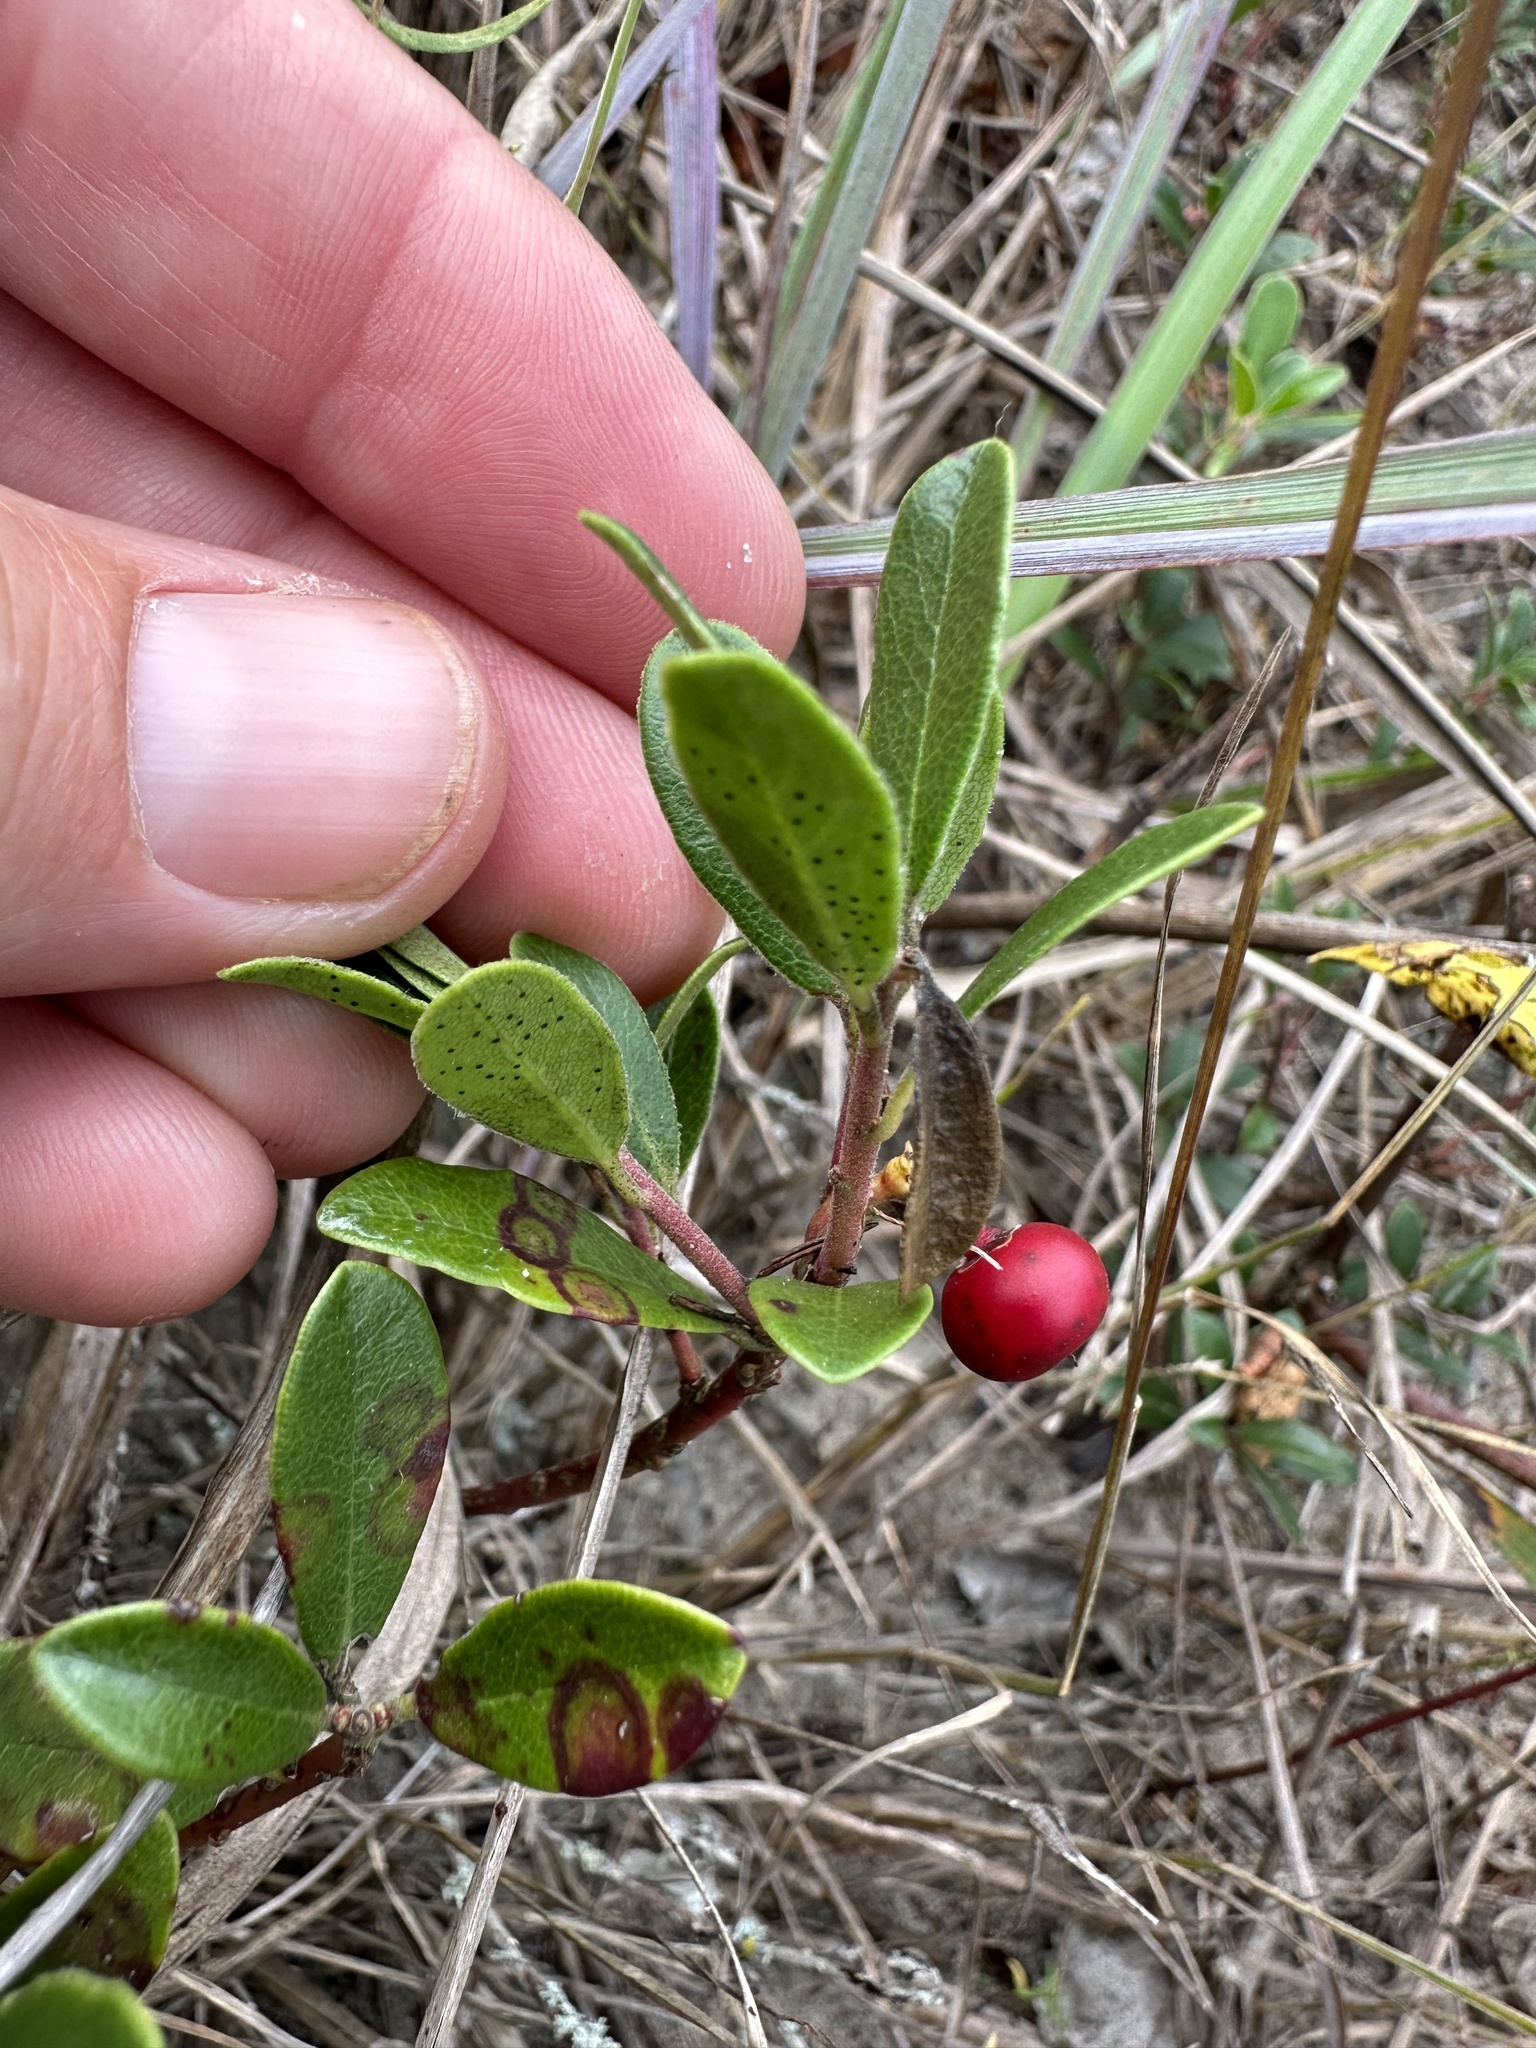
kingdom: Plantae
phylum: Tracheophyta
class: Magnoliopsida
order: Ericales
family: Ericaceae
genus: Arctostaphylos
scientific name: Arctostaphylos uva-ursi
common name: Bearberry
